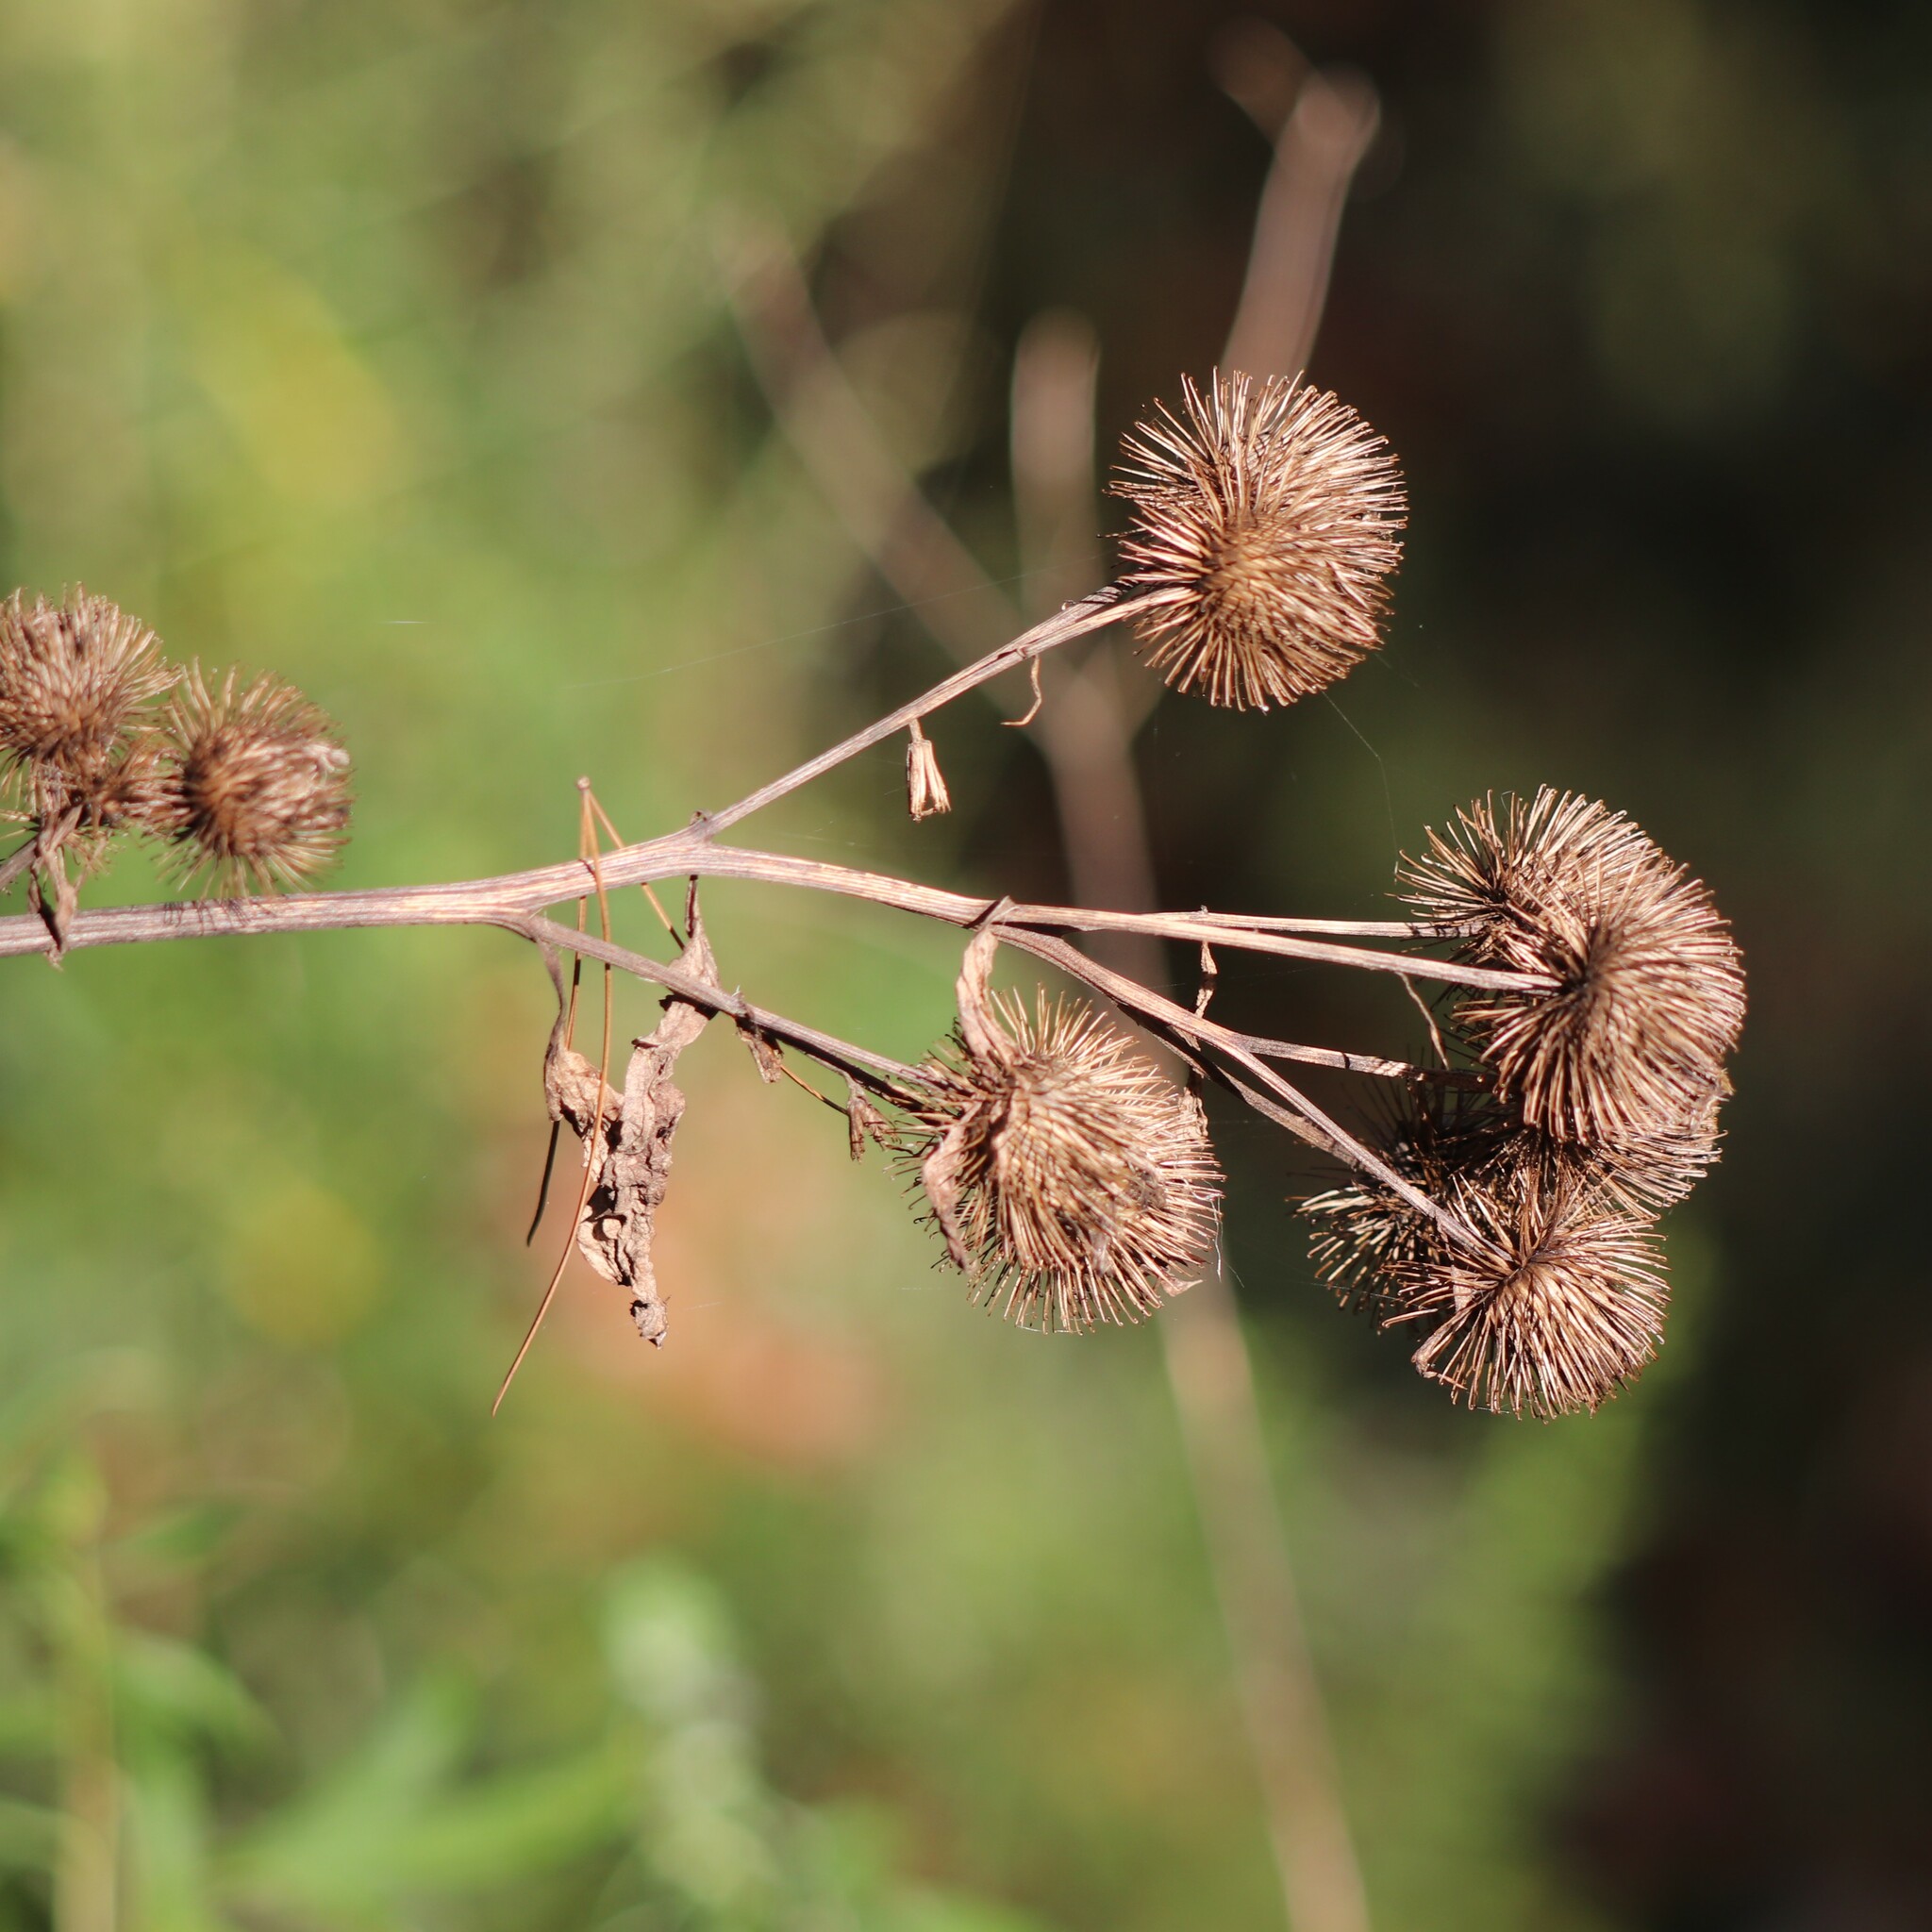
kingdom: Plantae
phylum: Tracheophyta
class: Magnoliopsida
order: Asterales
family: Asteraceae
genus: Arctium
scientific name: Arctium lappa
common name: Greater burdock
